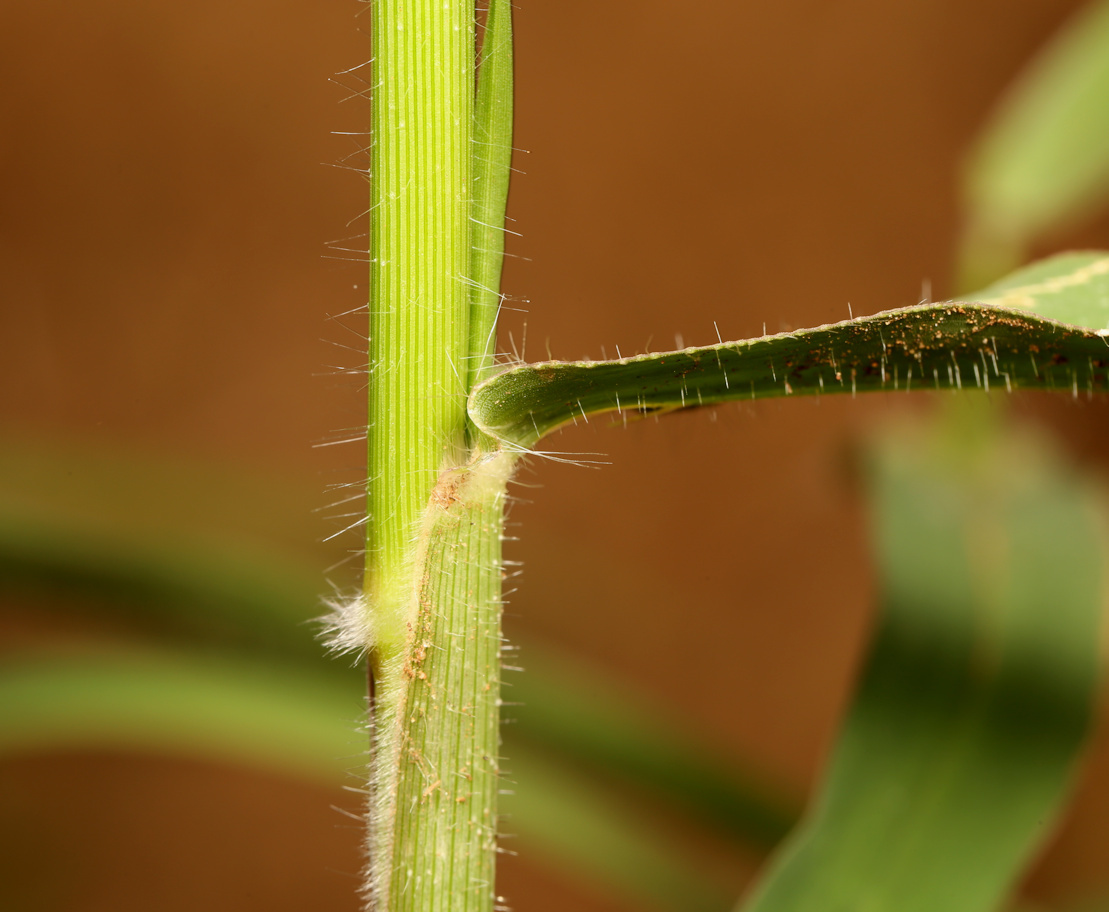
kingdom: Plantae
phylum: Tracheophyta
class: Liliopsida
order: Poales
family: Poaceae
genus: Urochloa
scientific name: Urochloa trichopus
